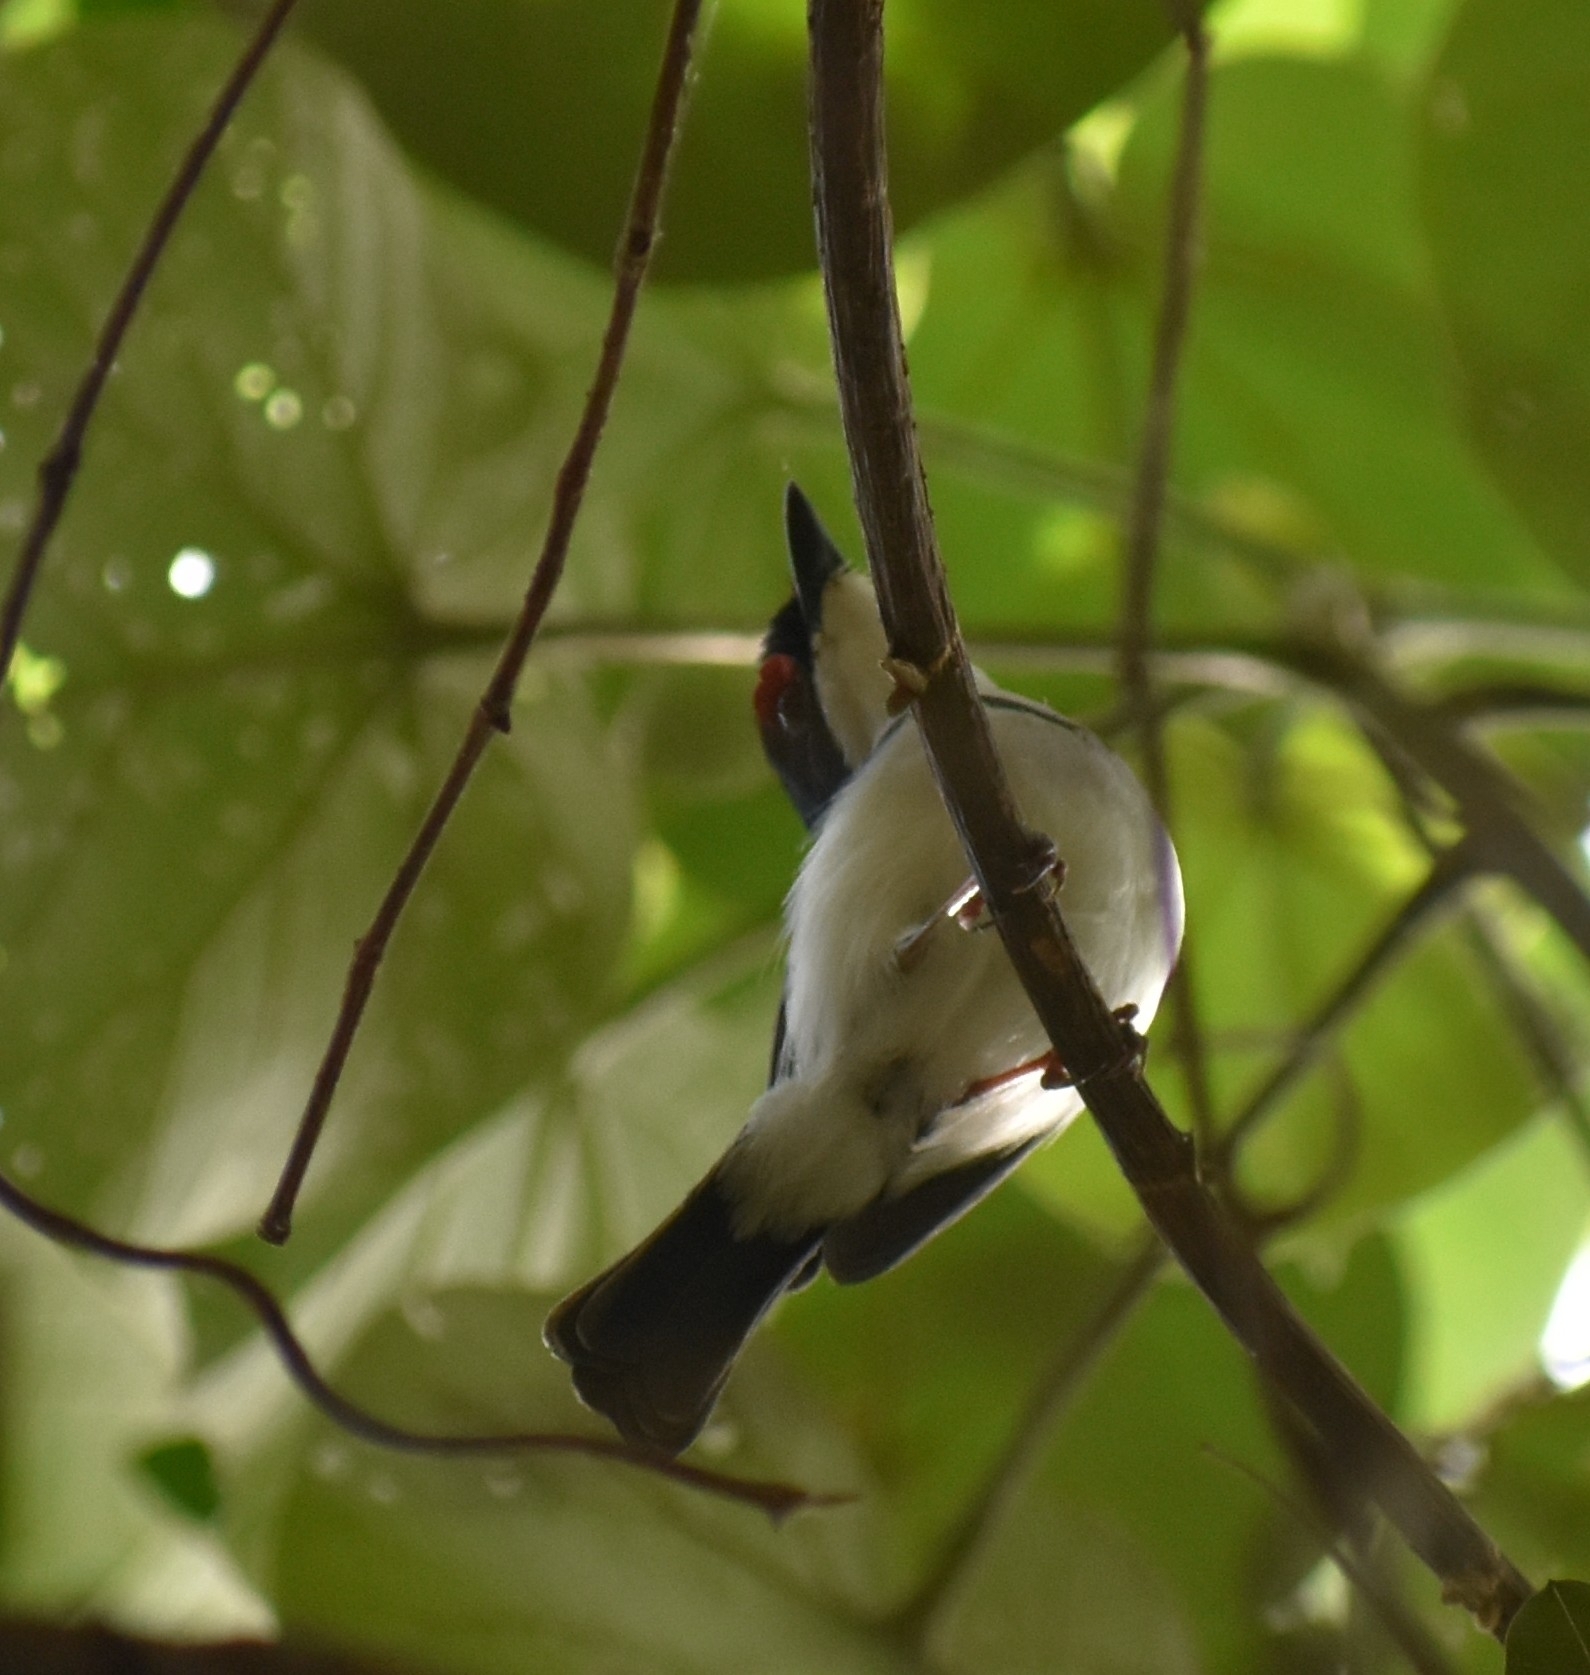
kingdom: Animalia
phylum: Chordata
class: Aves
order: Passeriformes
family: Platysteiridae
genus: Platysteira
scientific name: Platysteira peltata
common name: Black-throated wattle-eye
